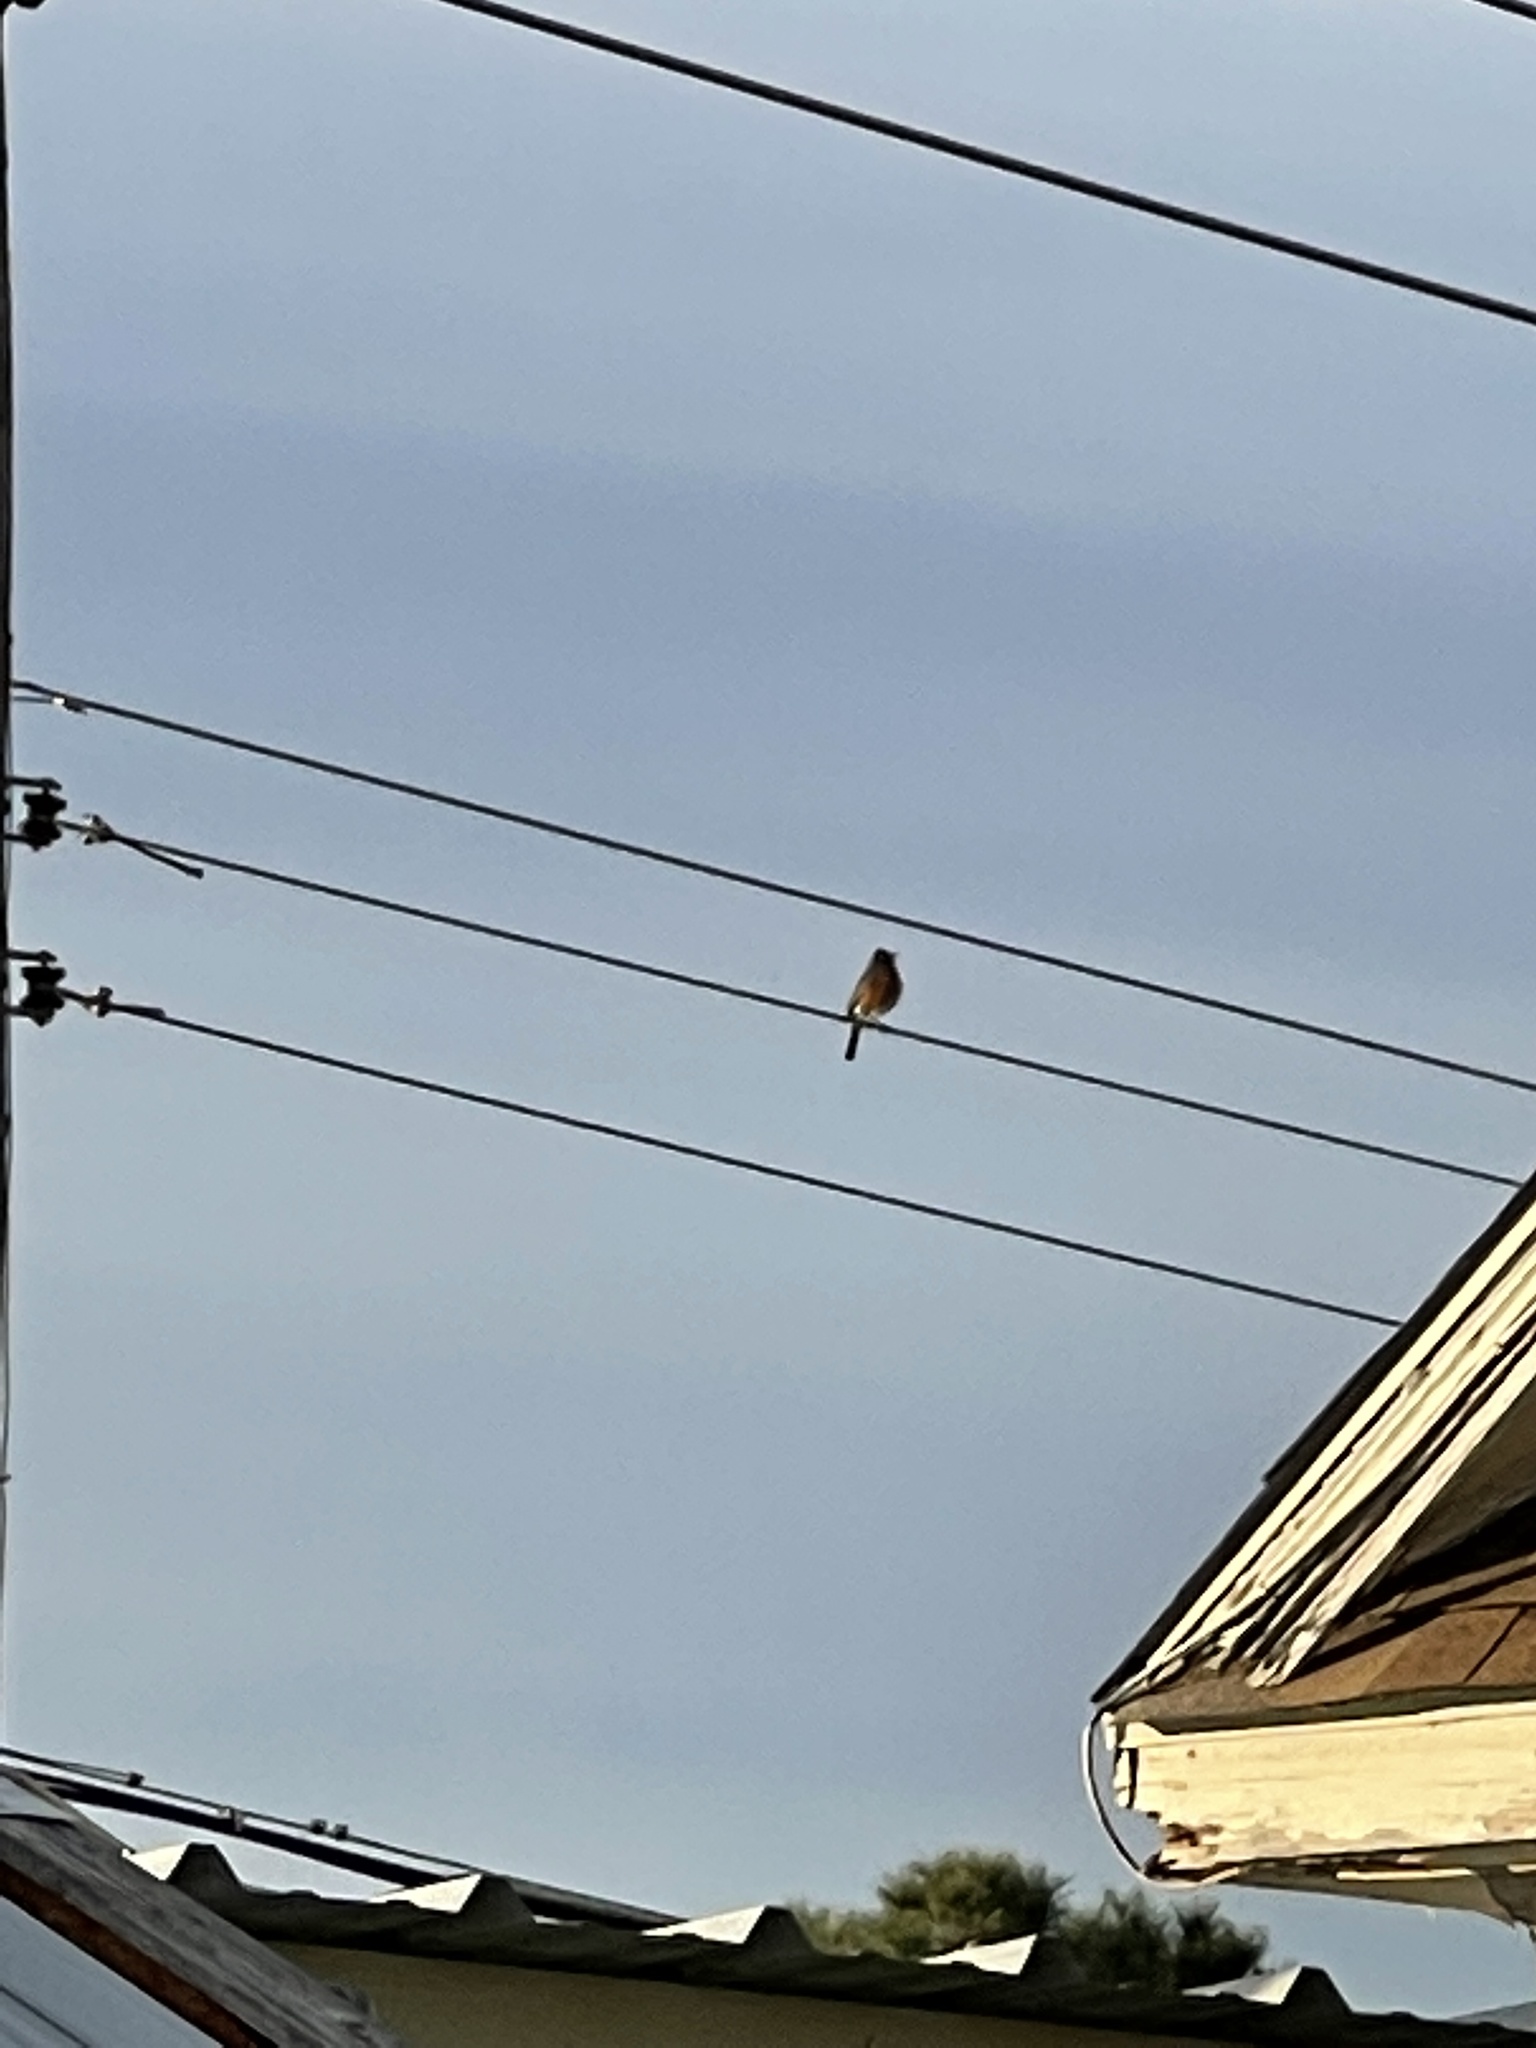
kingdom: Animalia
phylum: Chordata
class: Aves
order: Passeriformes
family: Turdidae
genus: Turdus
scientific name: Turdus migratorius
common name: American robin
